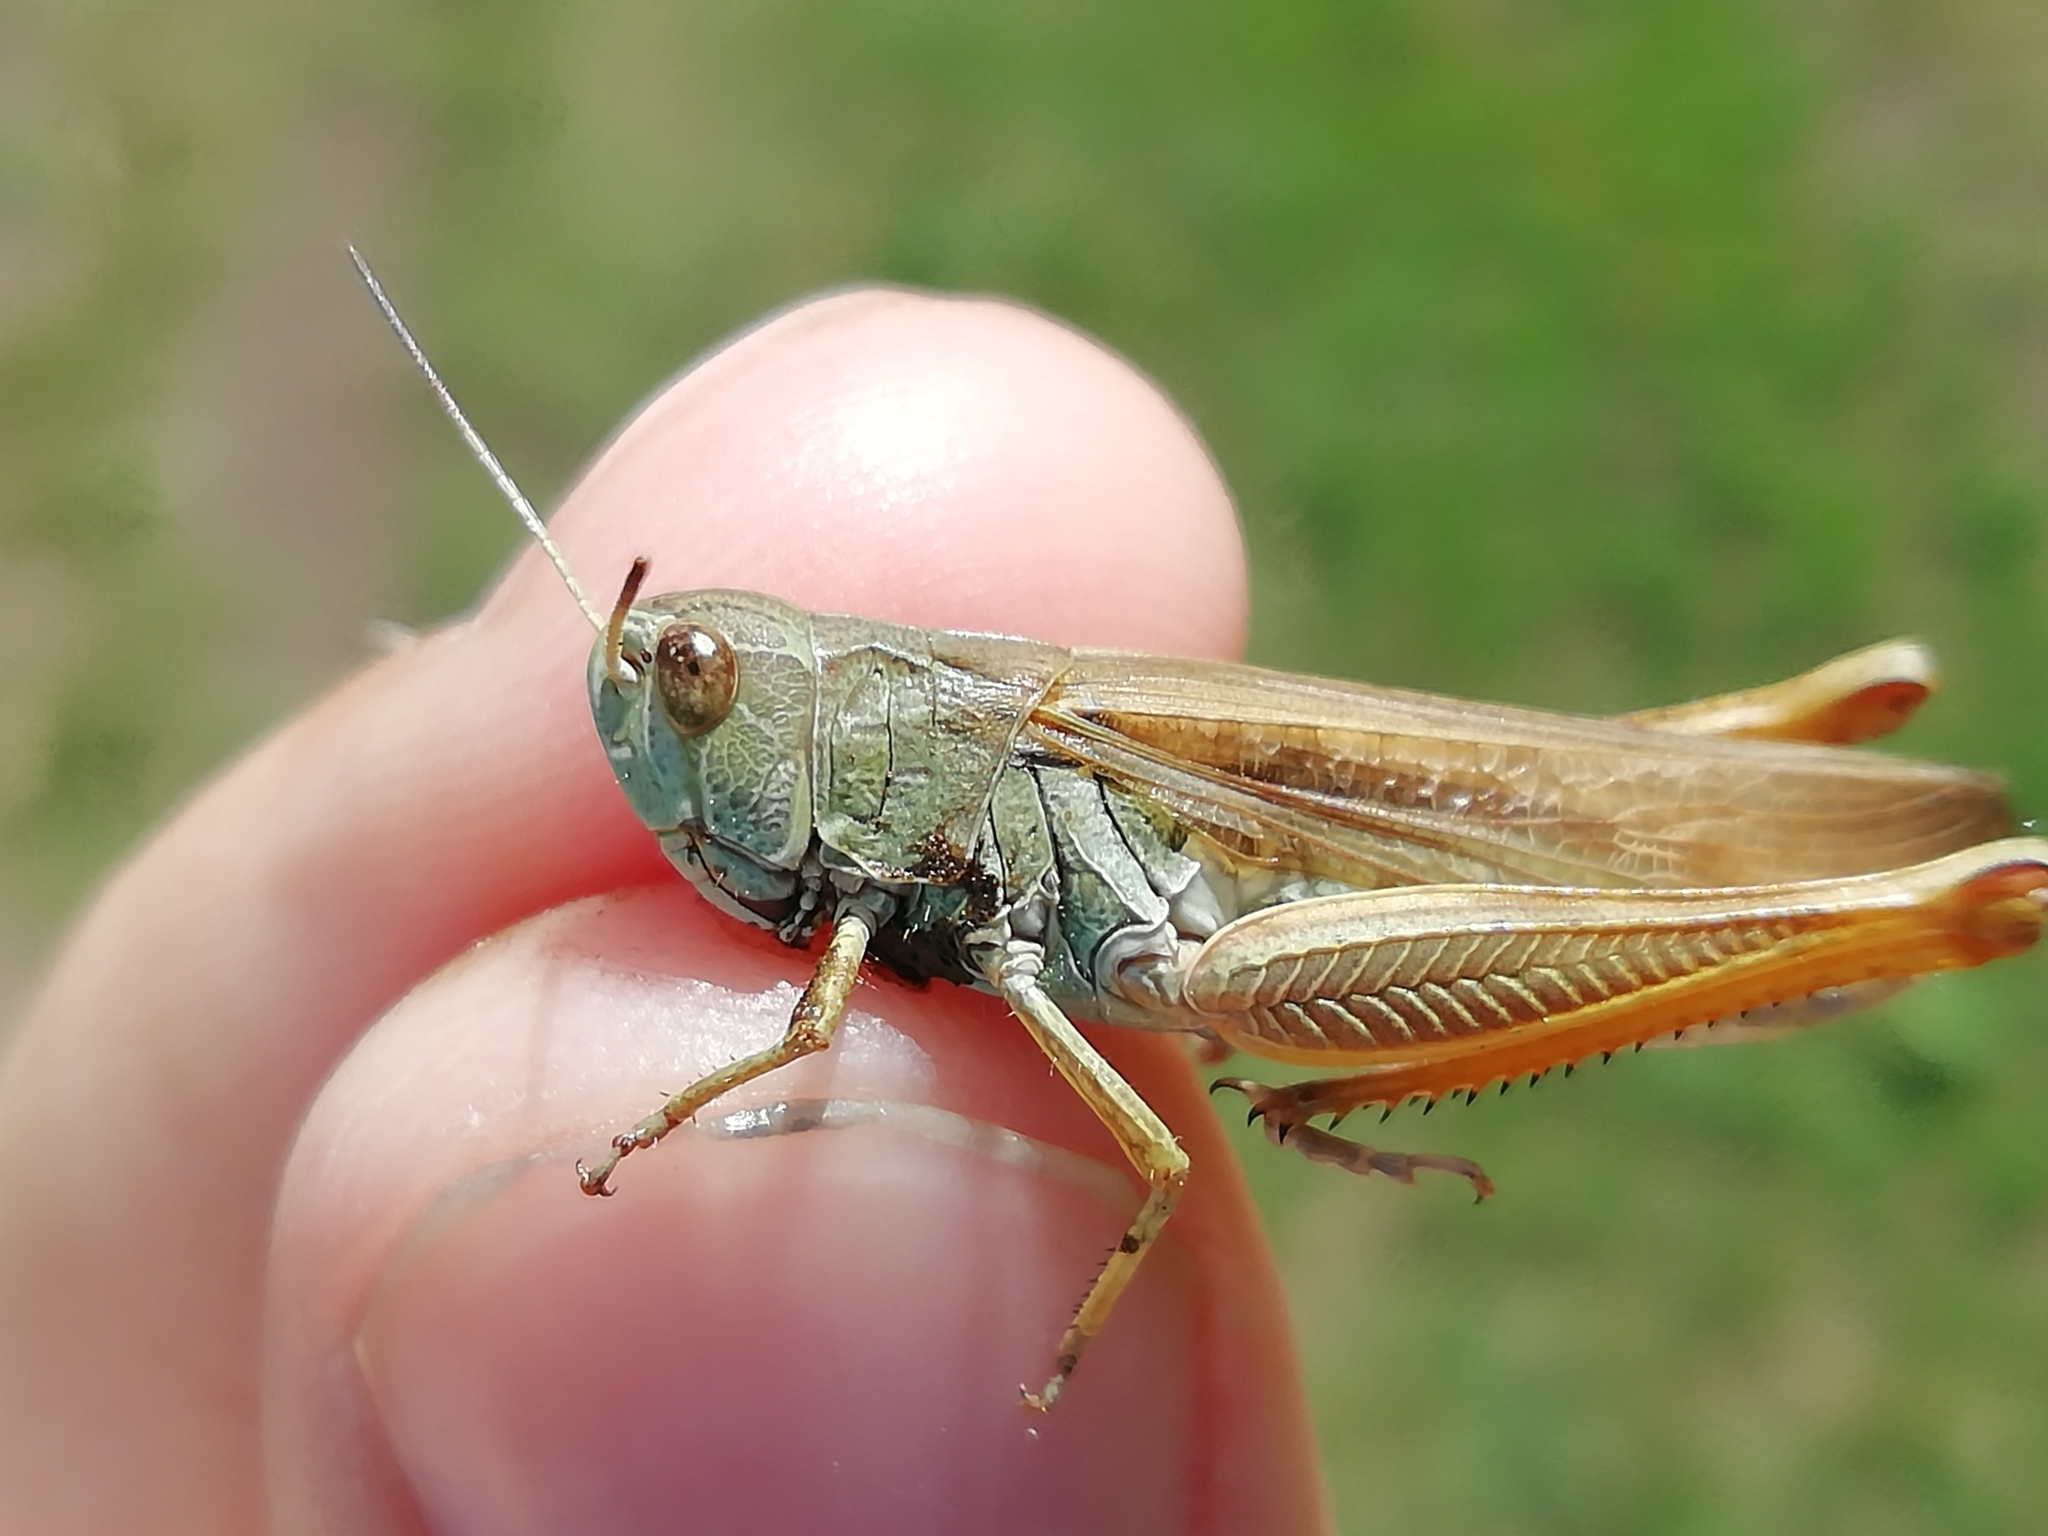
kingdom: Animalia
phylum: Arthropoda
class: Insecta
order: Orthoptera
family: Acrididae
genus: Stauroderus
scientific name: Stauroderus scalaris
